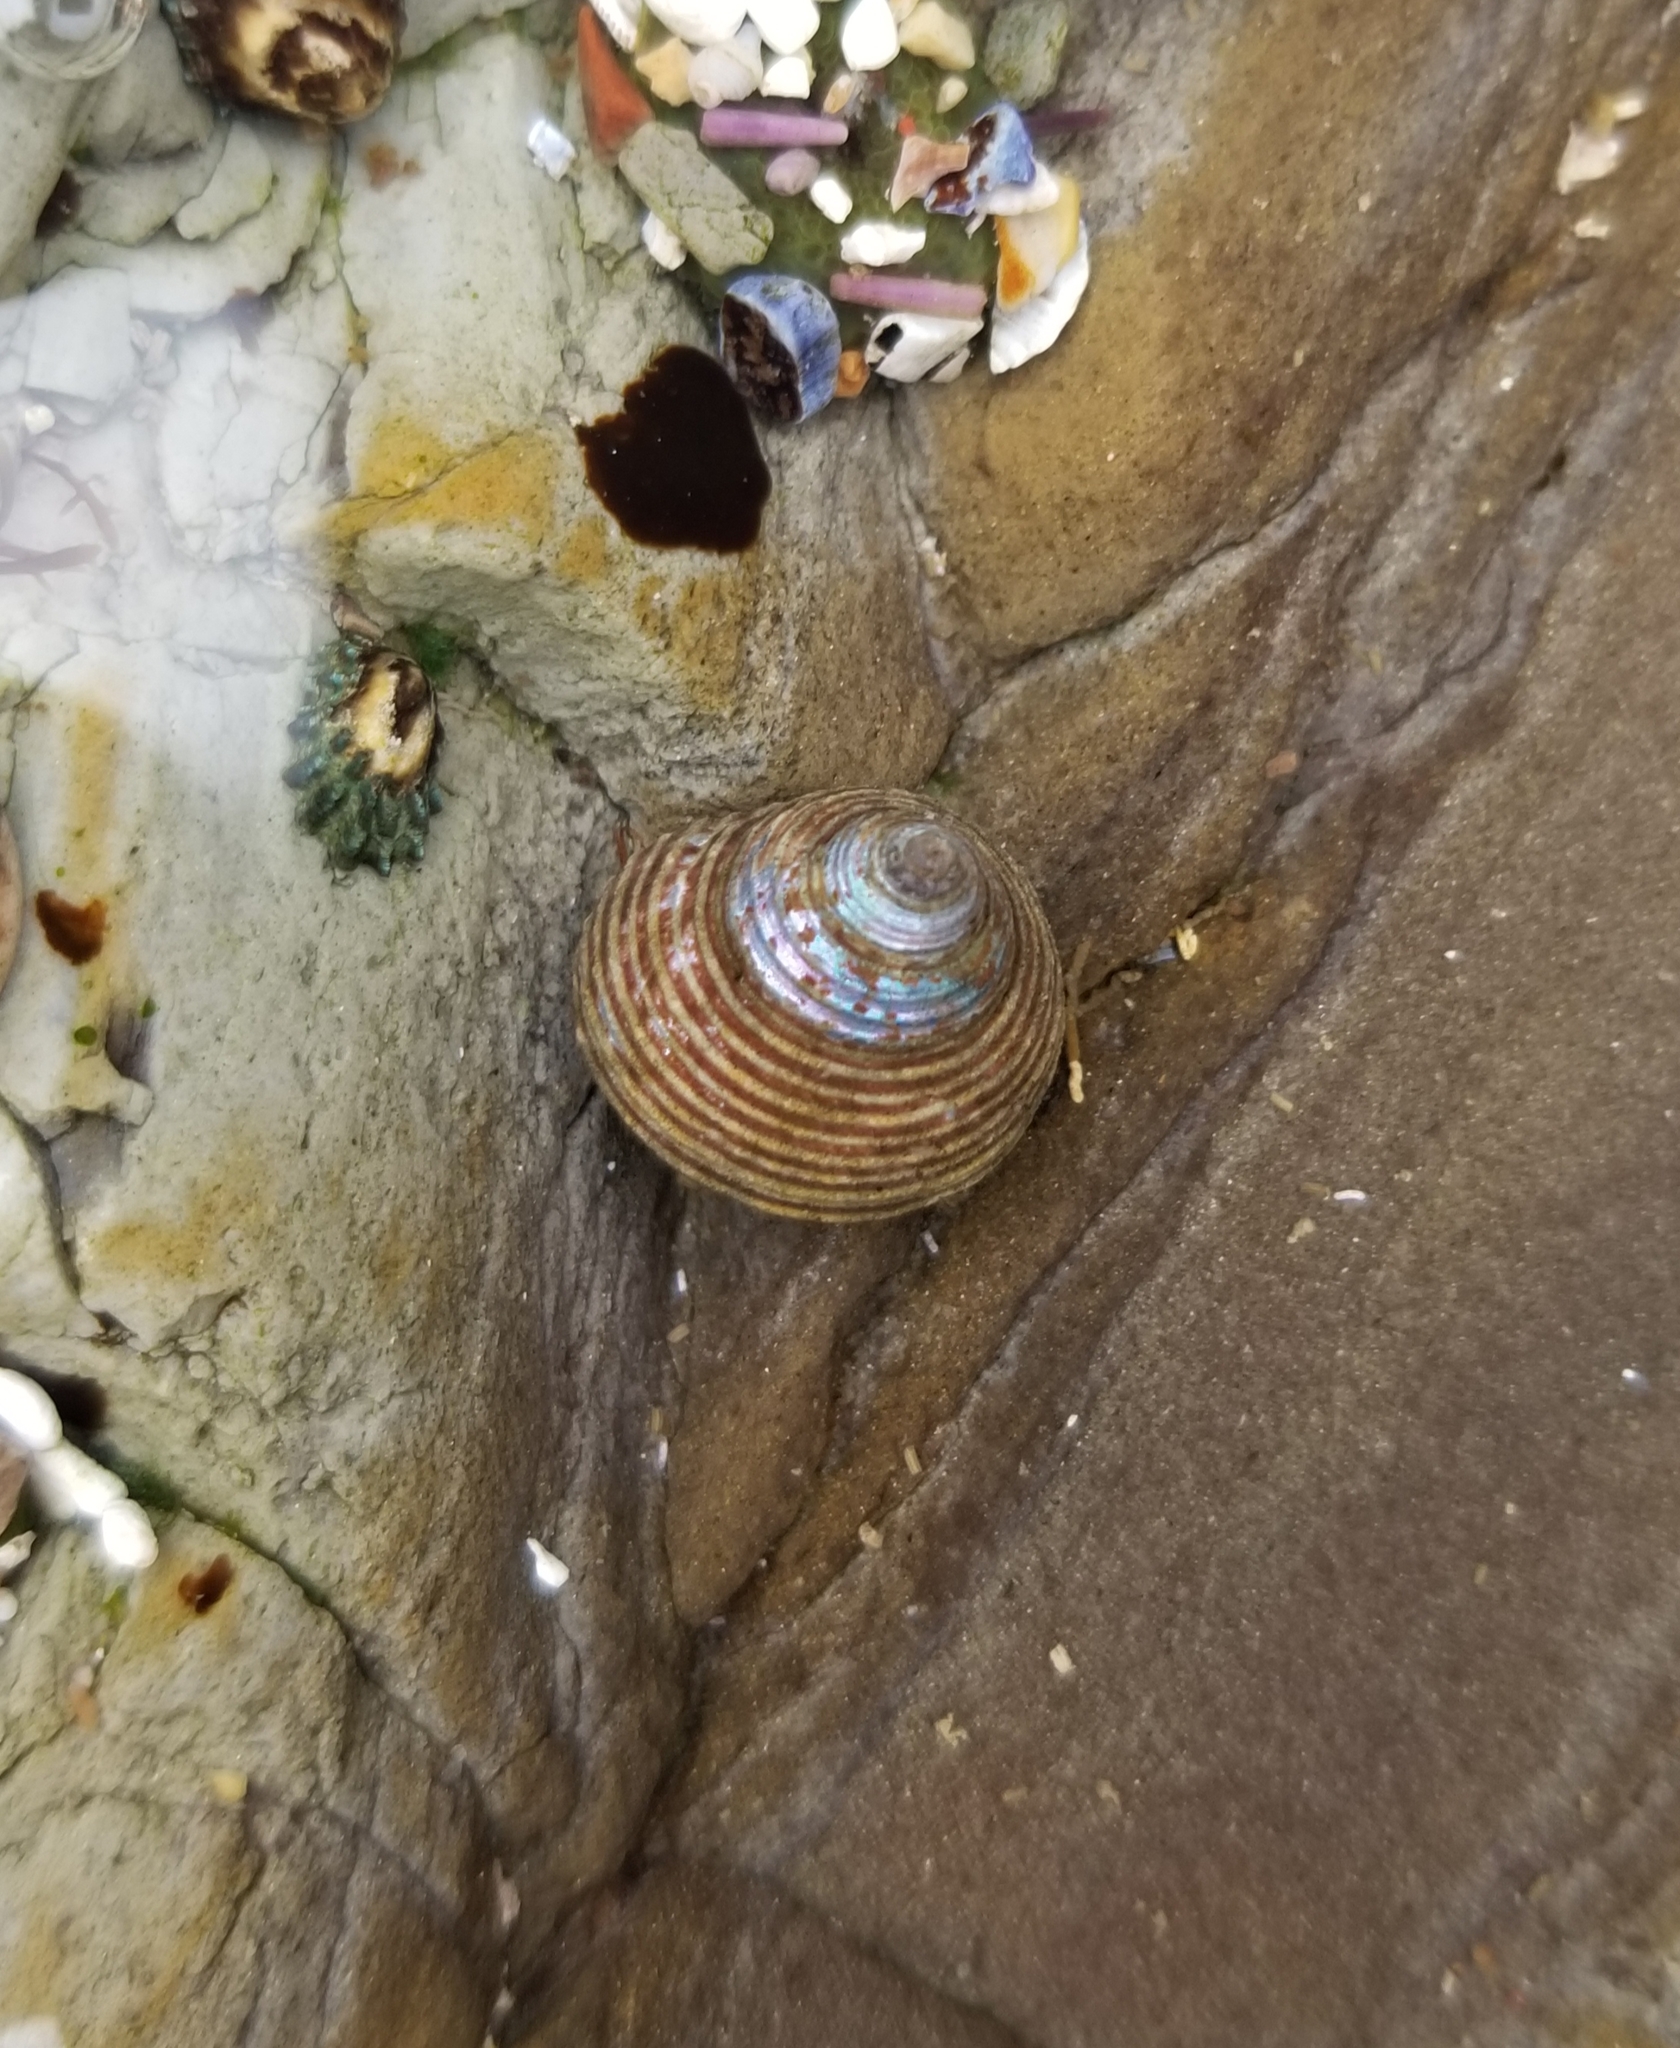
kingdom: Animalia
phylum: Mollusca
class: Gastropoda
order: Trochida
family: Calliostomatidae
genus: Calliostoma
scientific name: Calliostoma ligatum
